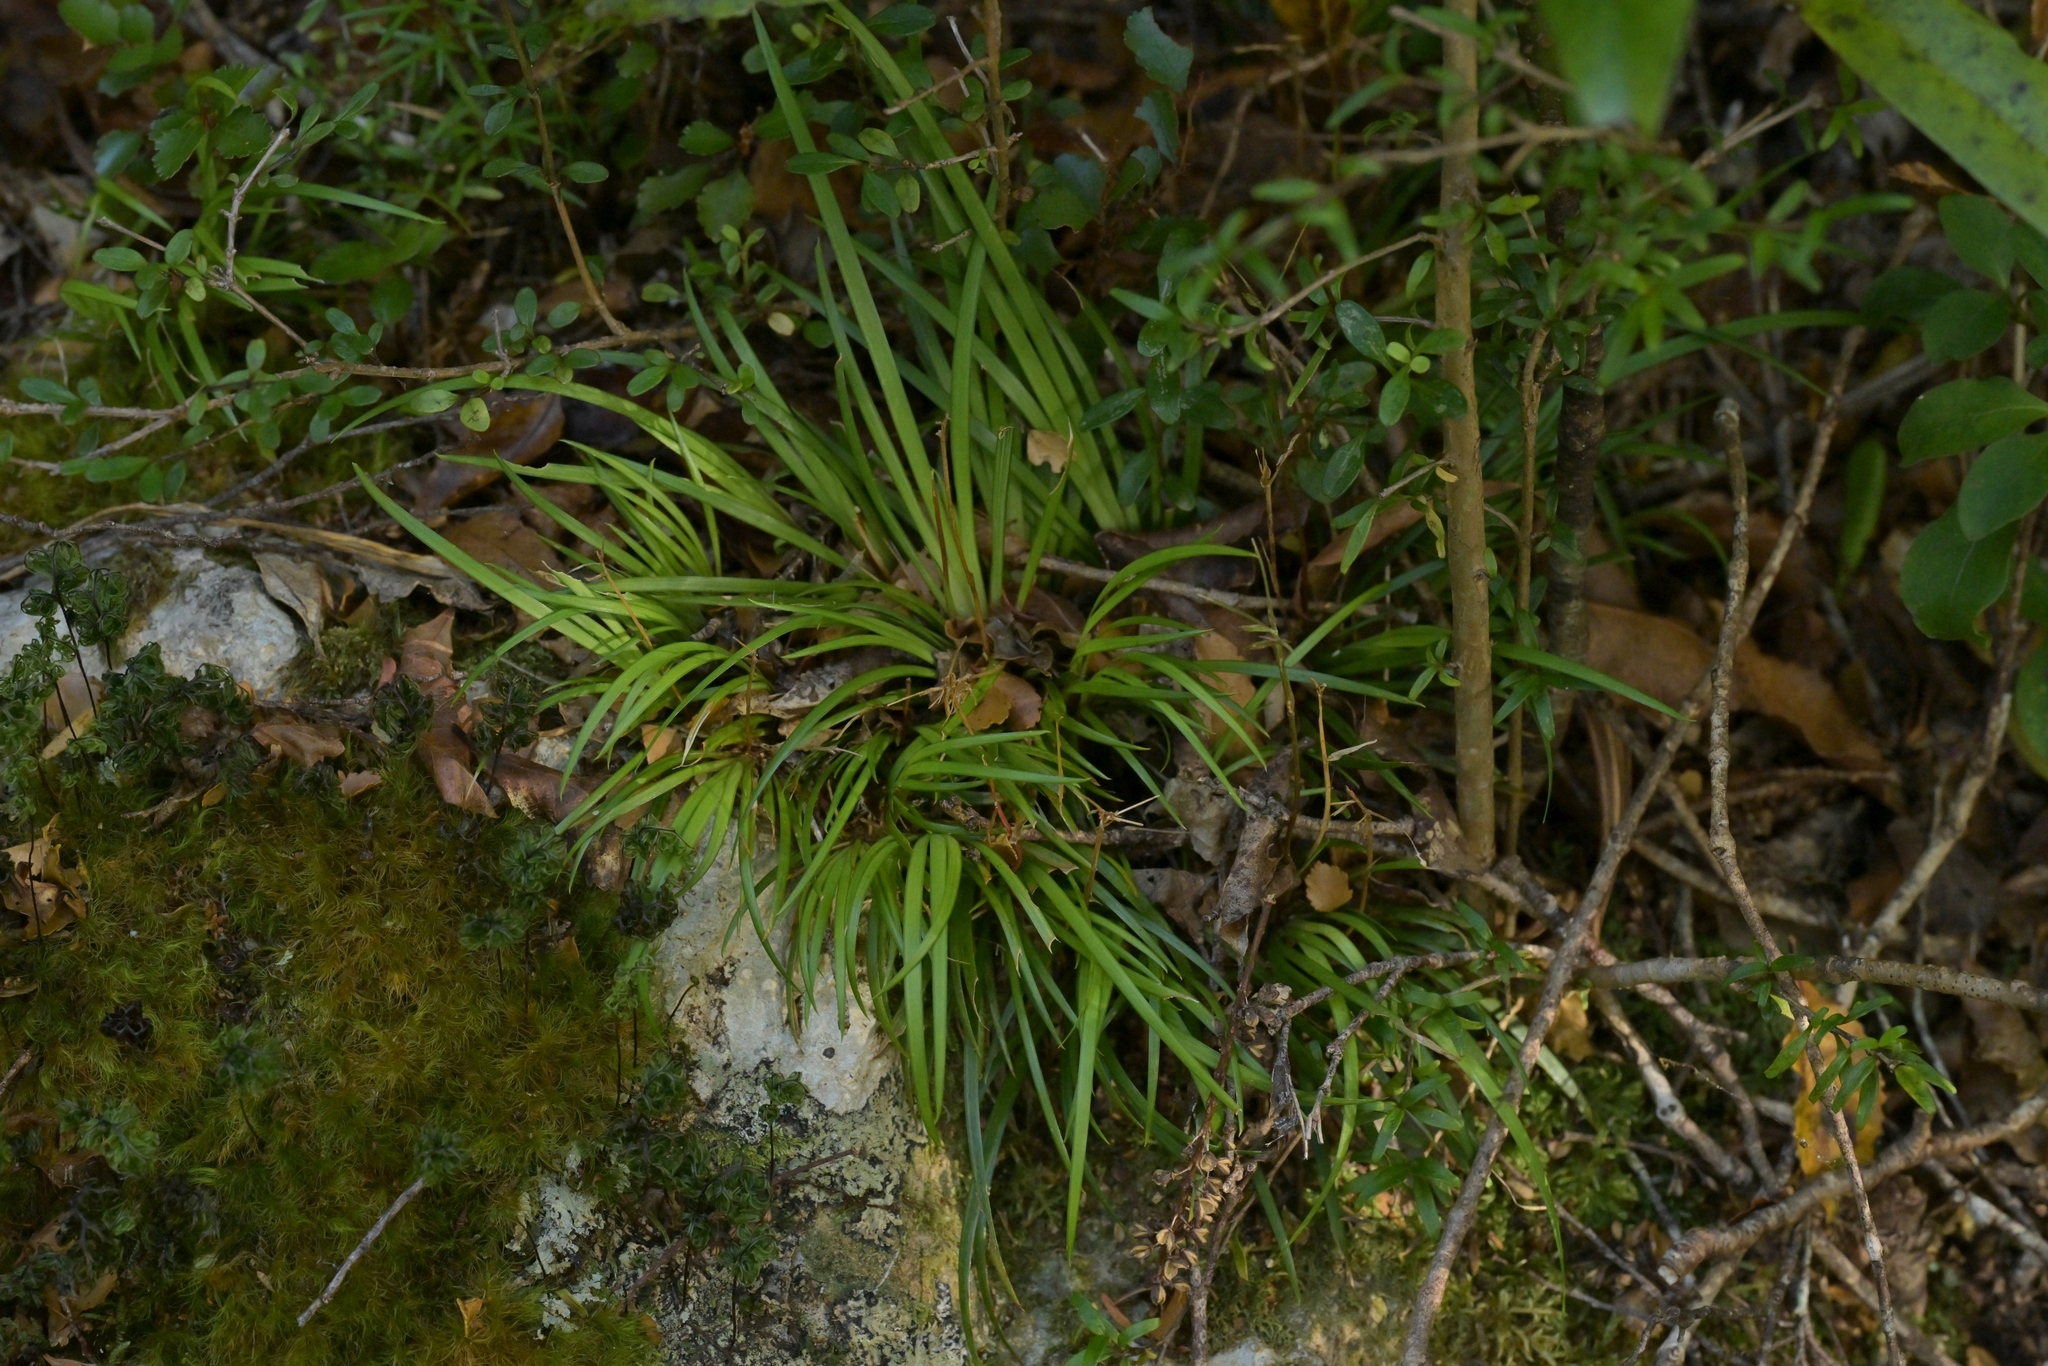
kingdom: Plantae
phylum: Tracheophyta
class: Liliopsida
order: Asparagales
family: Iridaceae
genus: Libertia
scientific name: Libertia micrantha
